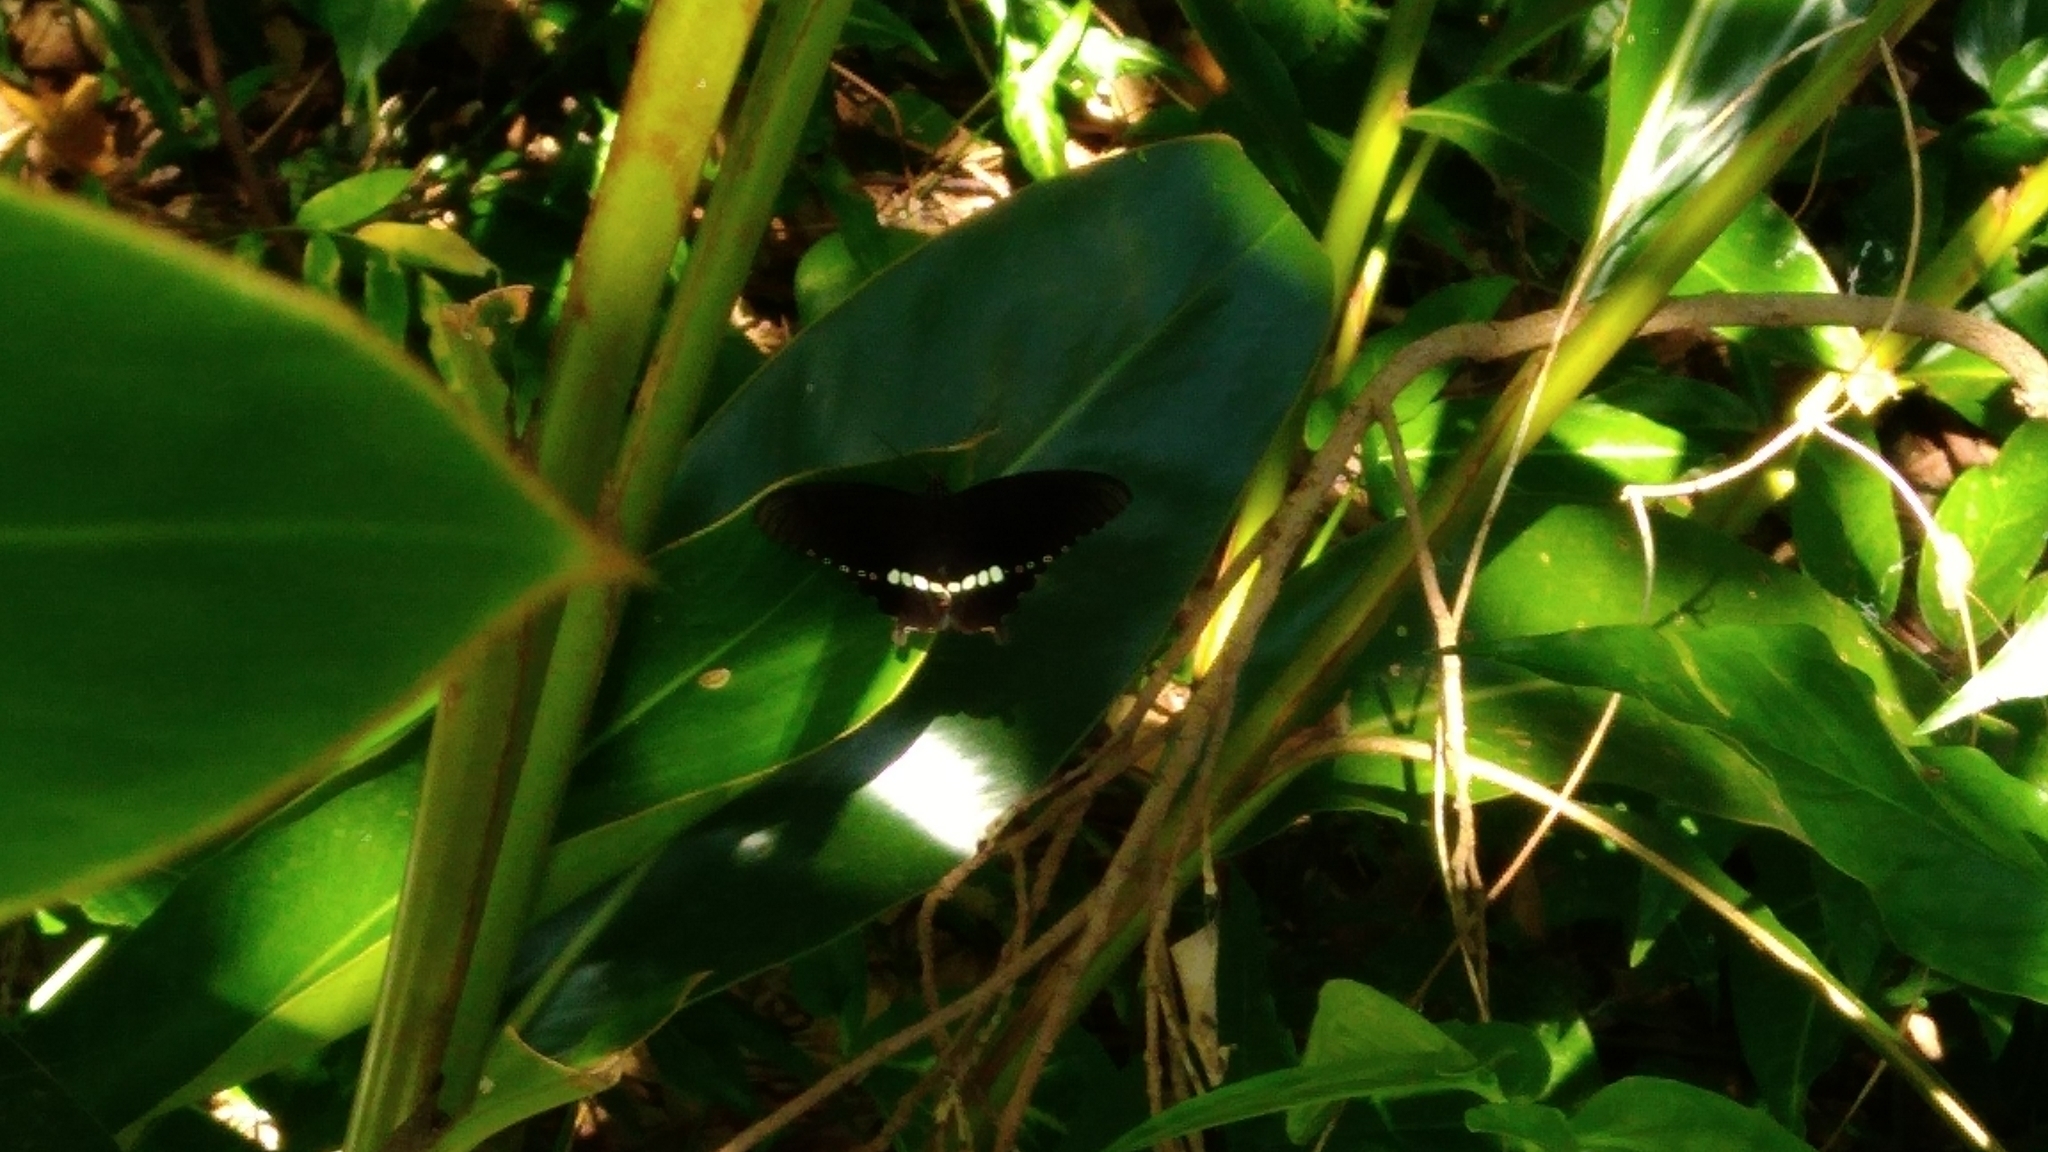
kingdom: Animalia
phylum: Arthropoda
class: Insecta
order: Lepidoptera
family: Papilionidae
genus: Papilio
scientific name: Papilio polytes
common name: Common mormon
